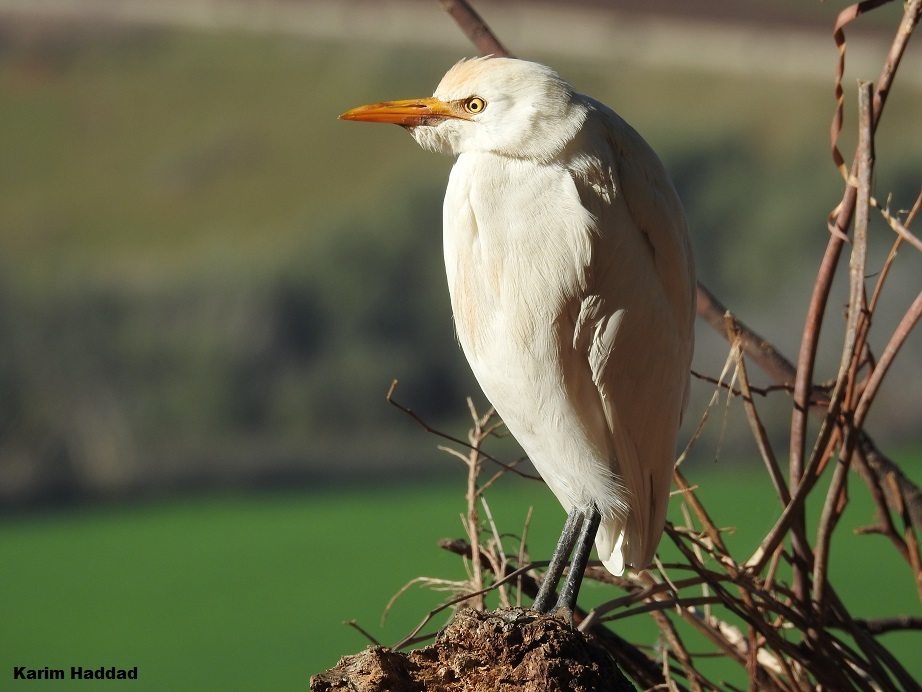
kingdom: Animalia
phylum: Chordata
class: Aves
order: Pelecaniformes
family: Ardeidae
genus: Bubulcus
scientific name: Bubulcus ibis
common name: Cattle egret
